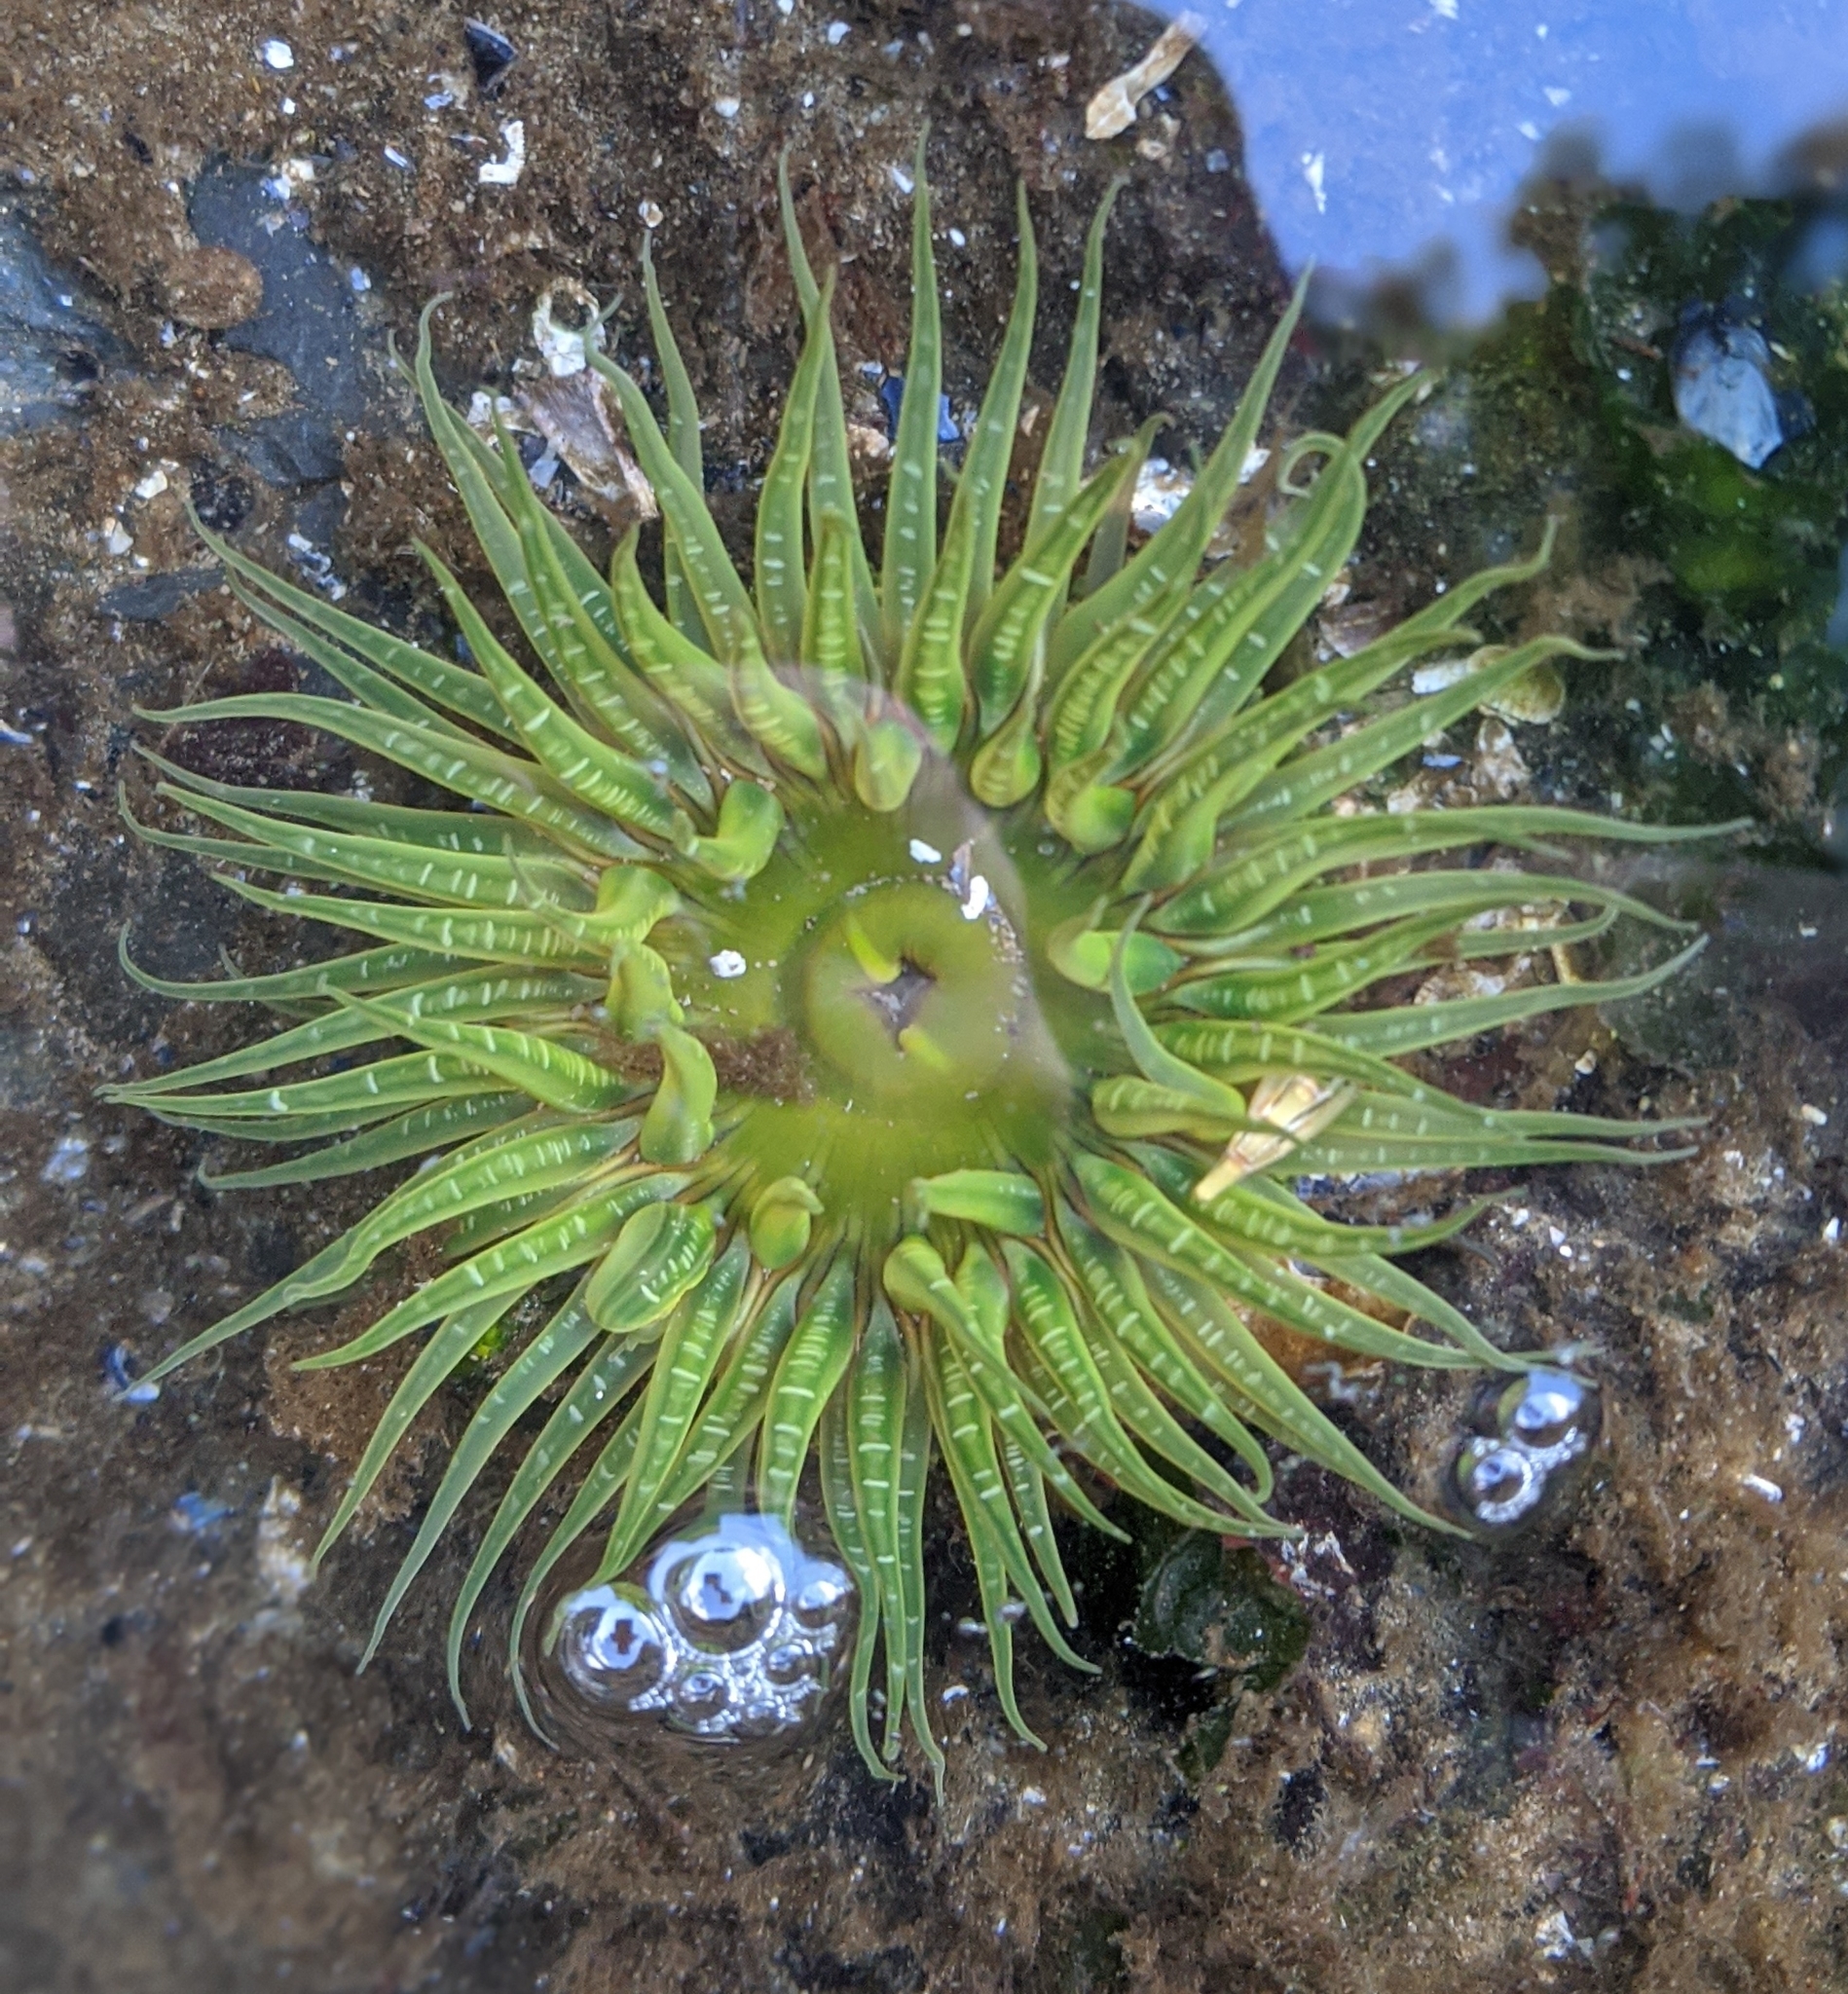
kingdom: Animalia
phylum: Cnidaria
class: Anthozoa
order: Actiniaria
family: Actiniidae
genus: Anthopleura
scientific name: Anthopleura artemisia
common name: Buried sea anemone
